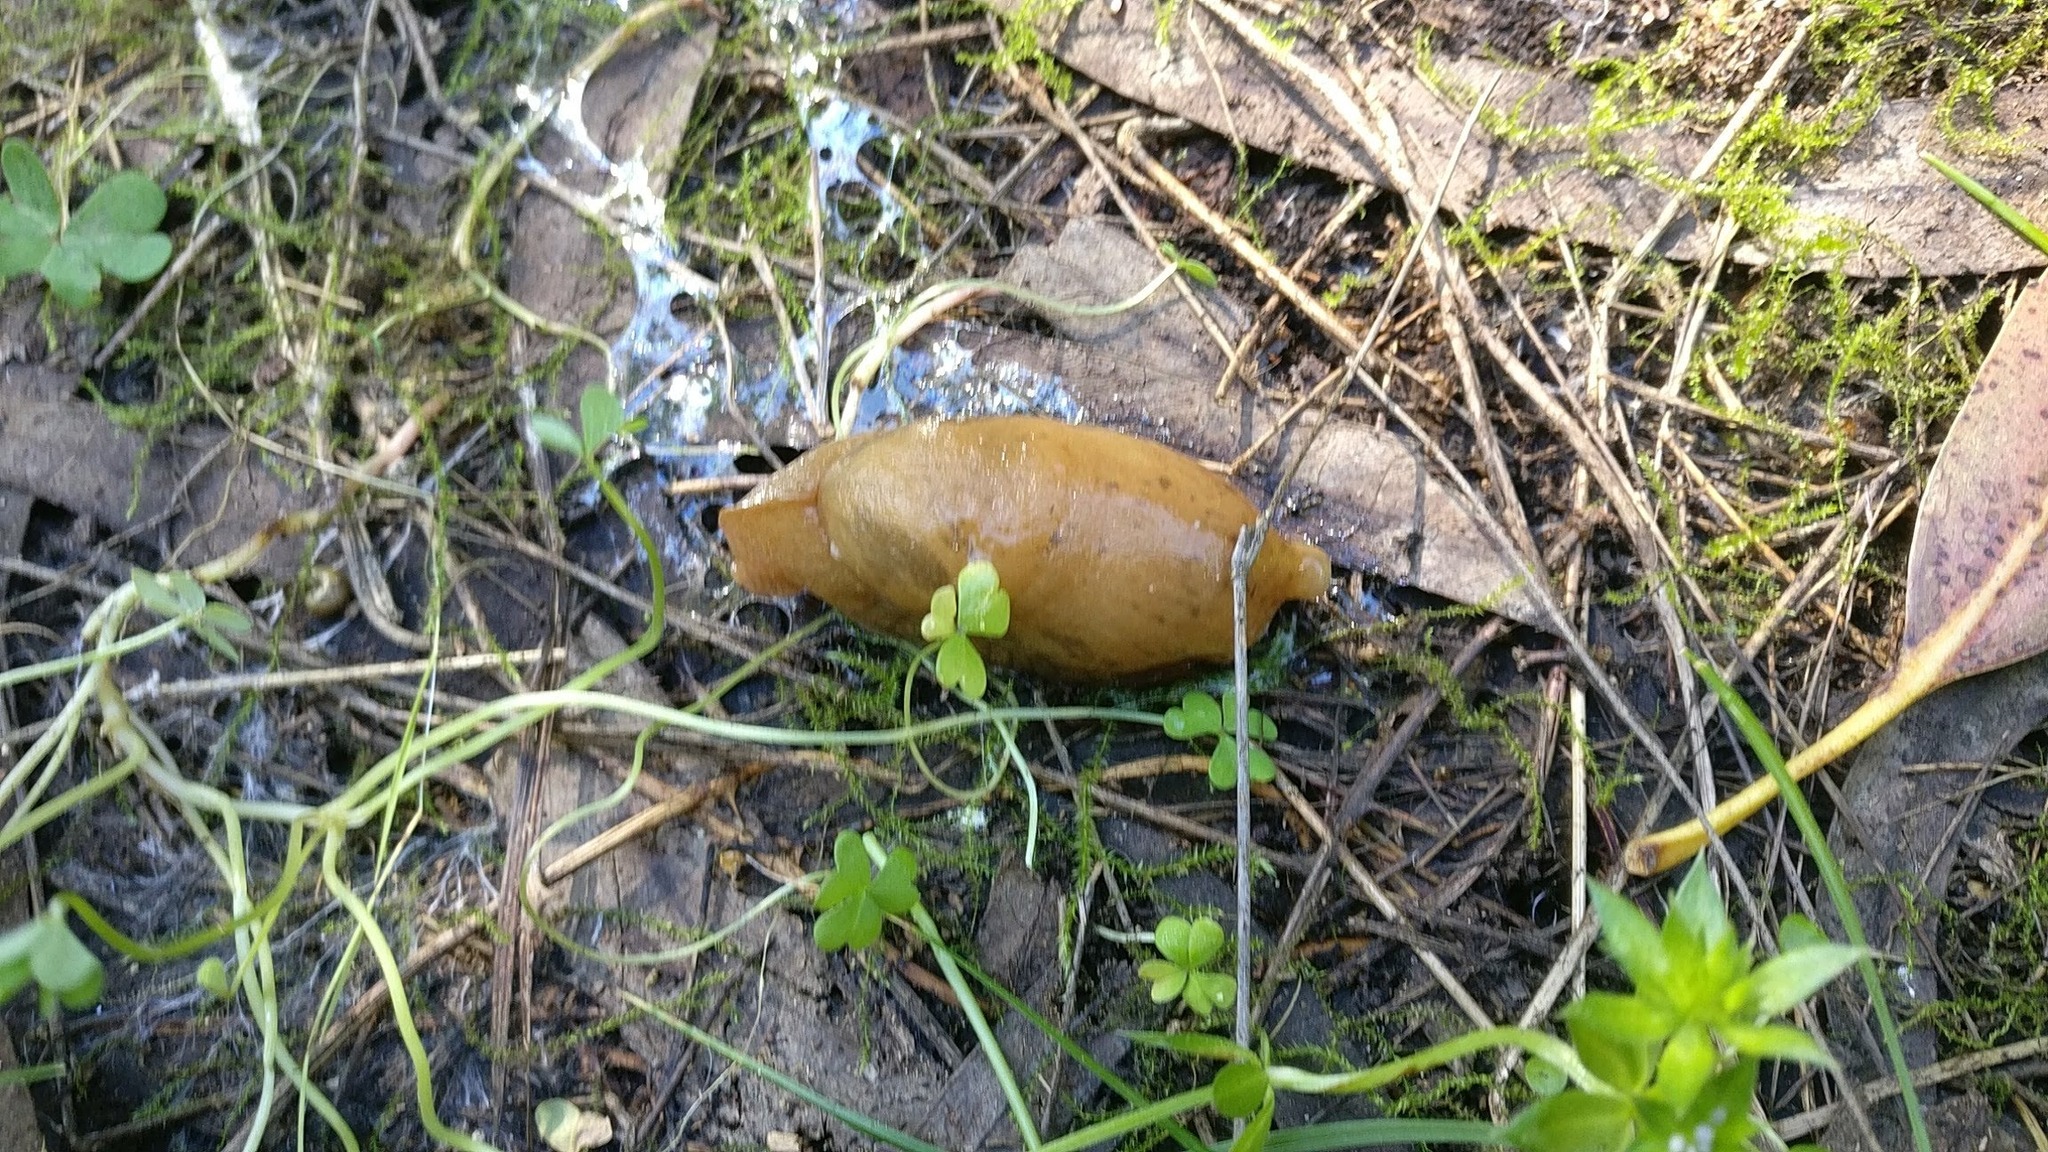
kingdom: Animalia
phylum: Mollusca
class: Gastropoda
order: Stylommatophora
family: Parmacellidae
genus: Drusia
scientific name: Drusia valenciennii
